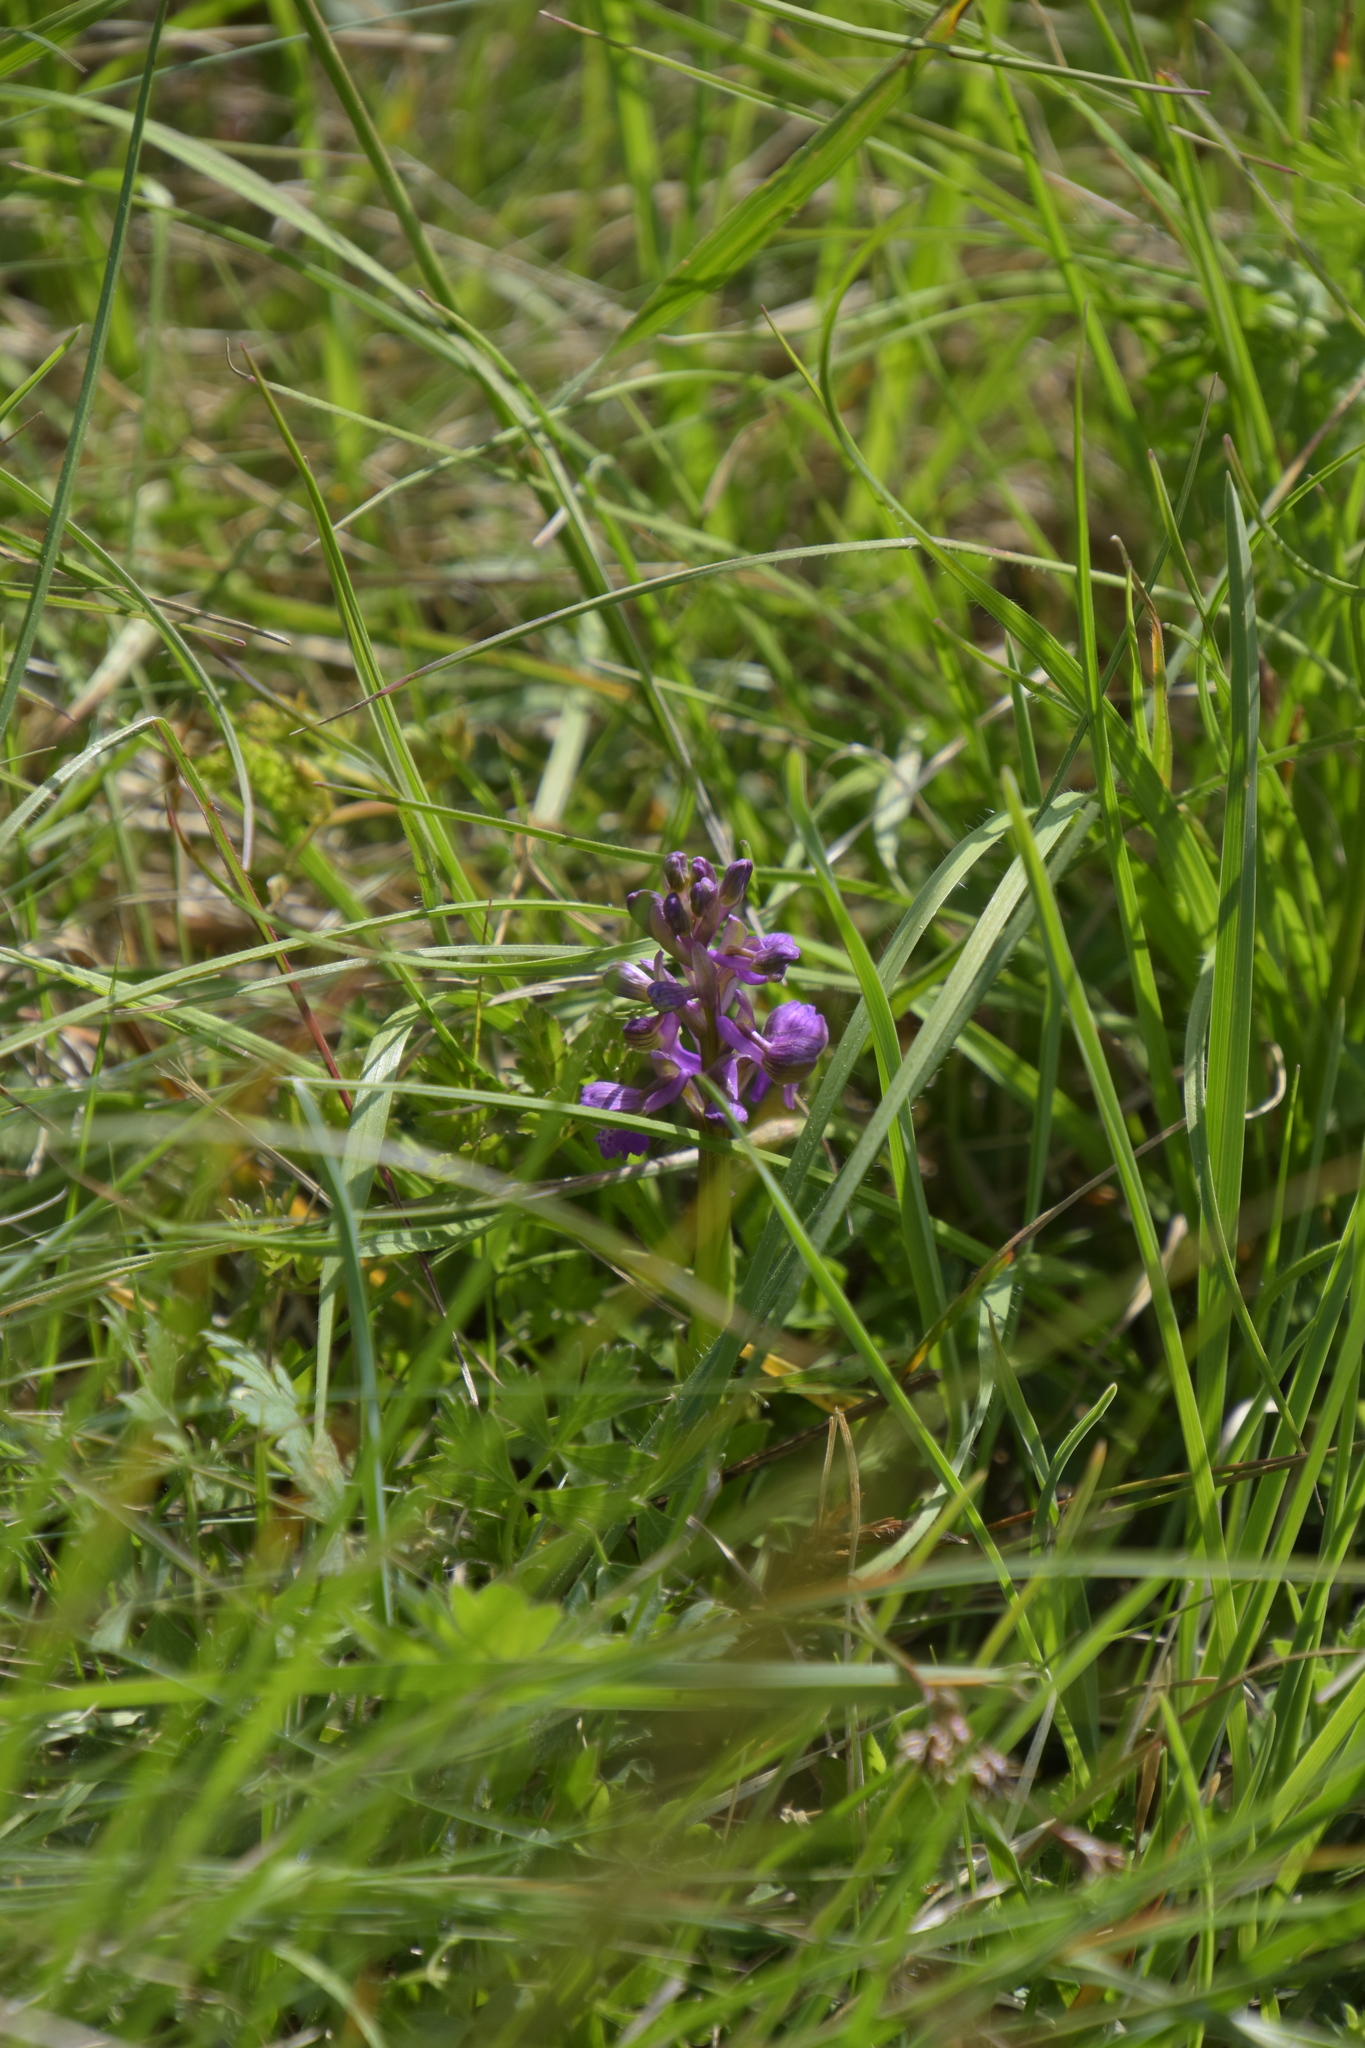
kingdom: Plantae
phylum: Tracheophyta
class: Liliopsida
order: Asparagales
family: Orchidaceae
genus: Anacamptis
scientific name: Anacamptis morio
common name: Green-winged orchid
